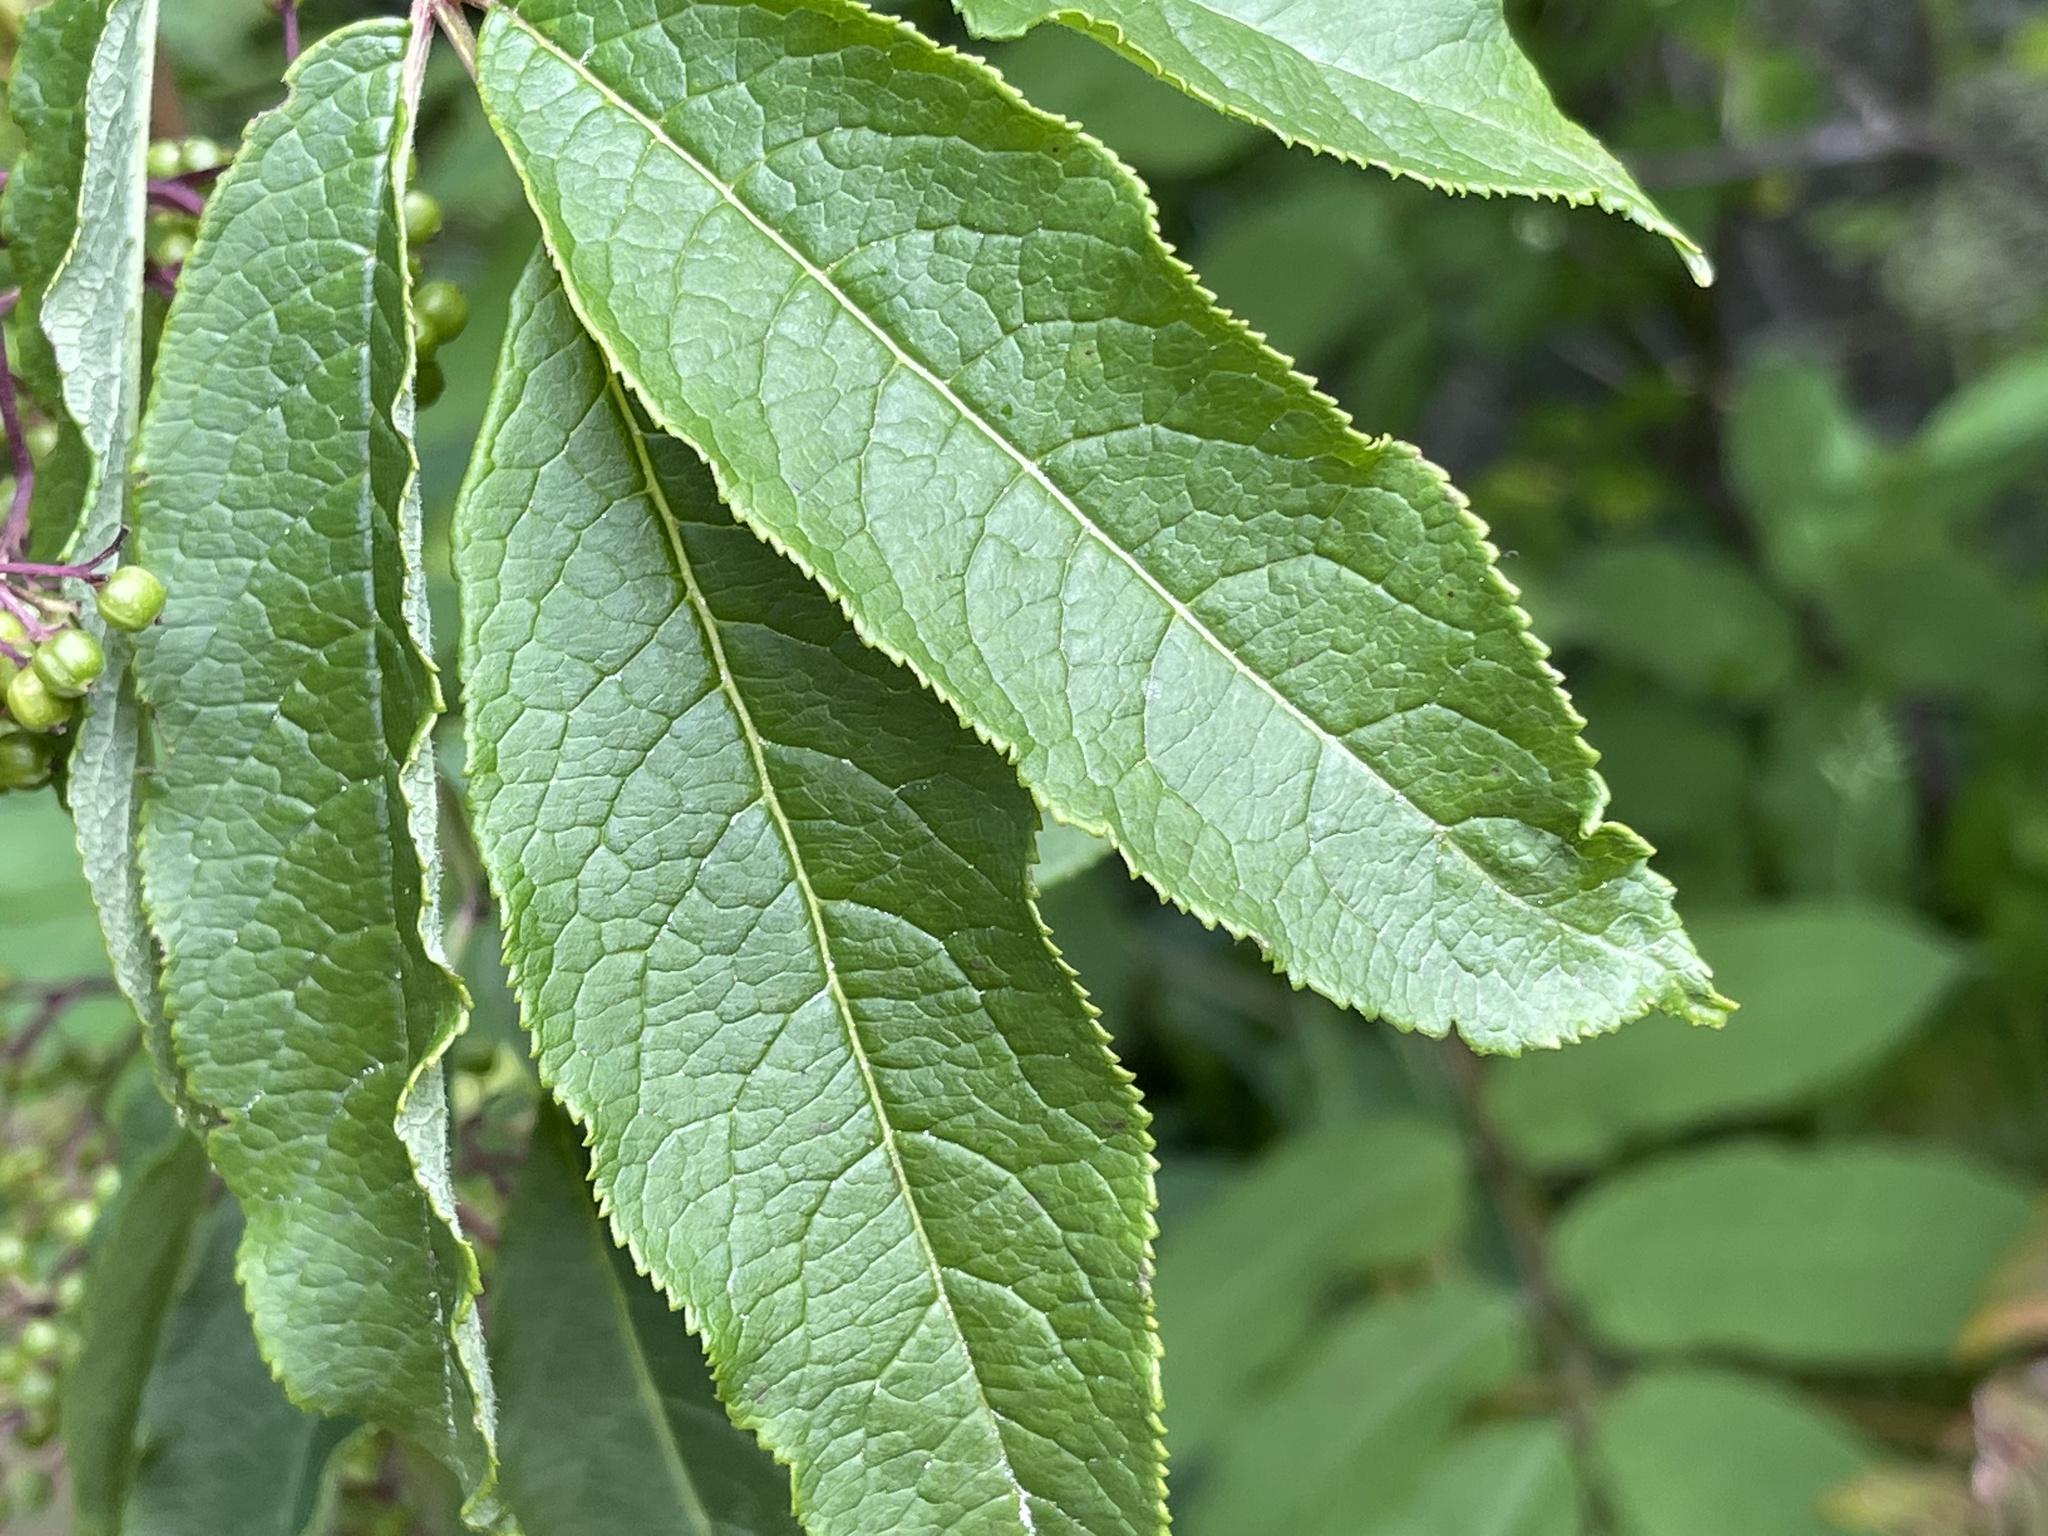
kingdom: Plantae
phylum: Tracheophyta
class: Magnoliopsida
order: Dipsacales
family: Viburnaceae
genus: Sambucus
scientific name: Sambucus racemosa
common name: Red-berried elder
